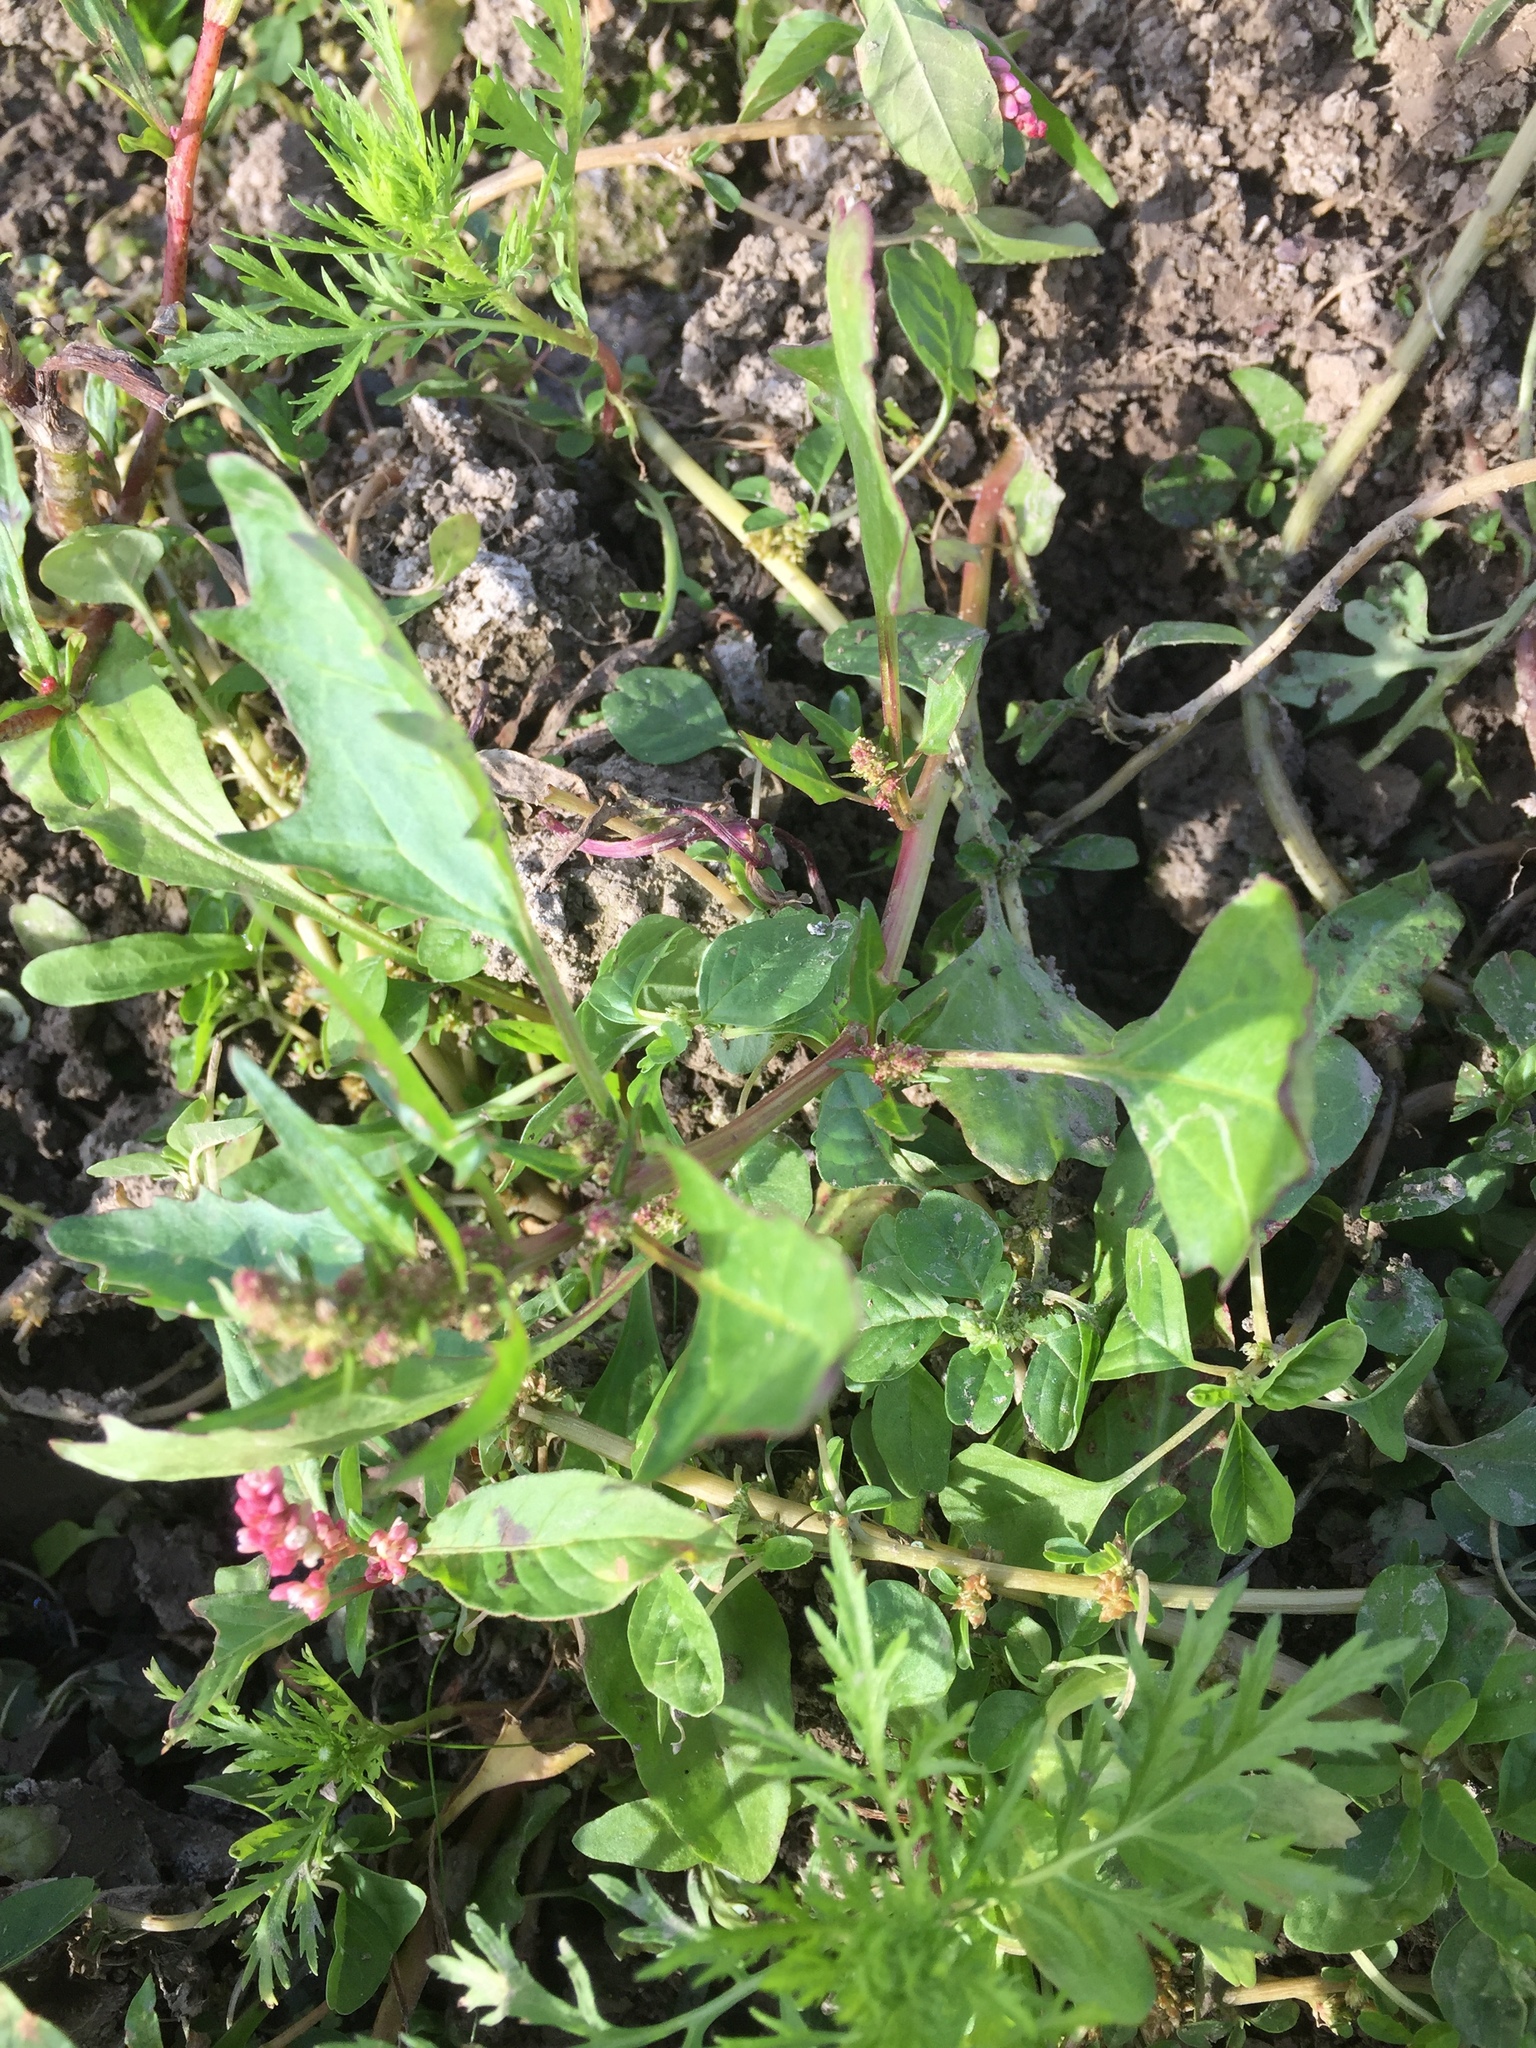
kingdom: Plantae
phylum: Tracheophyta
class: Magnoliopsida
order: Caryophyllales
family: Amaranthaceae
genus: Oxybasis
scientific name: Oxybasis rubra
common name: Red goosefoot
